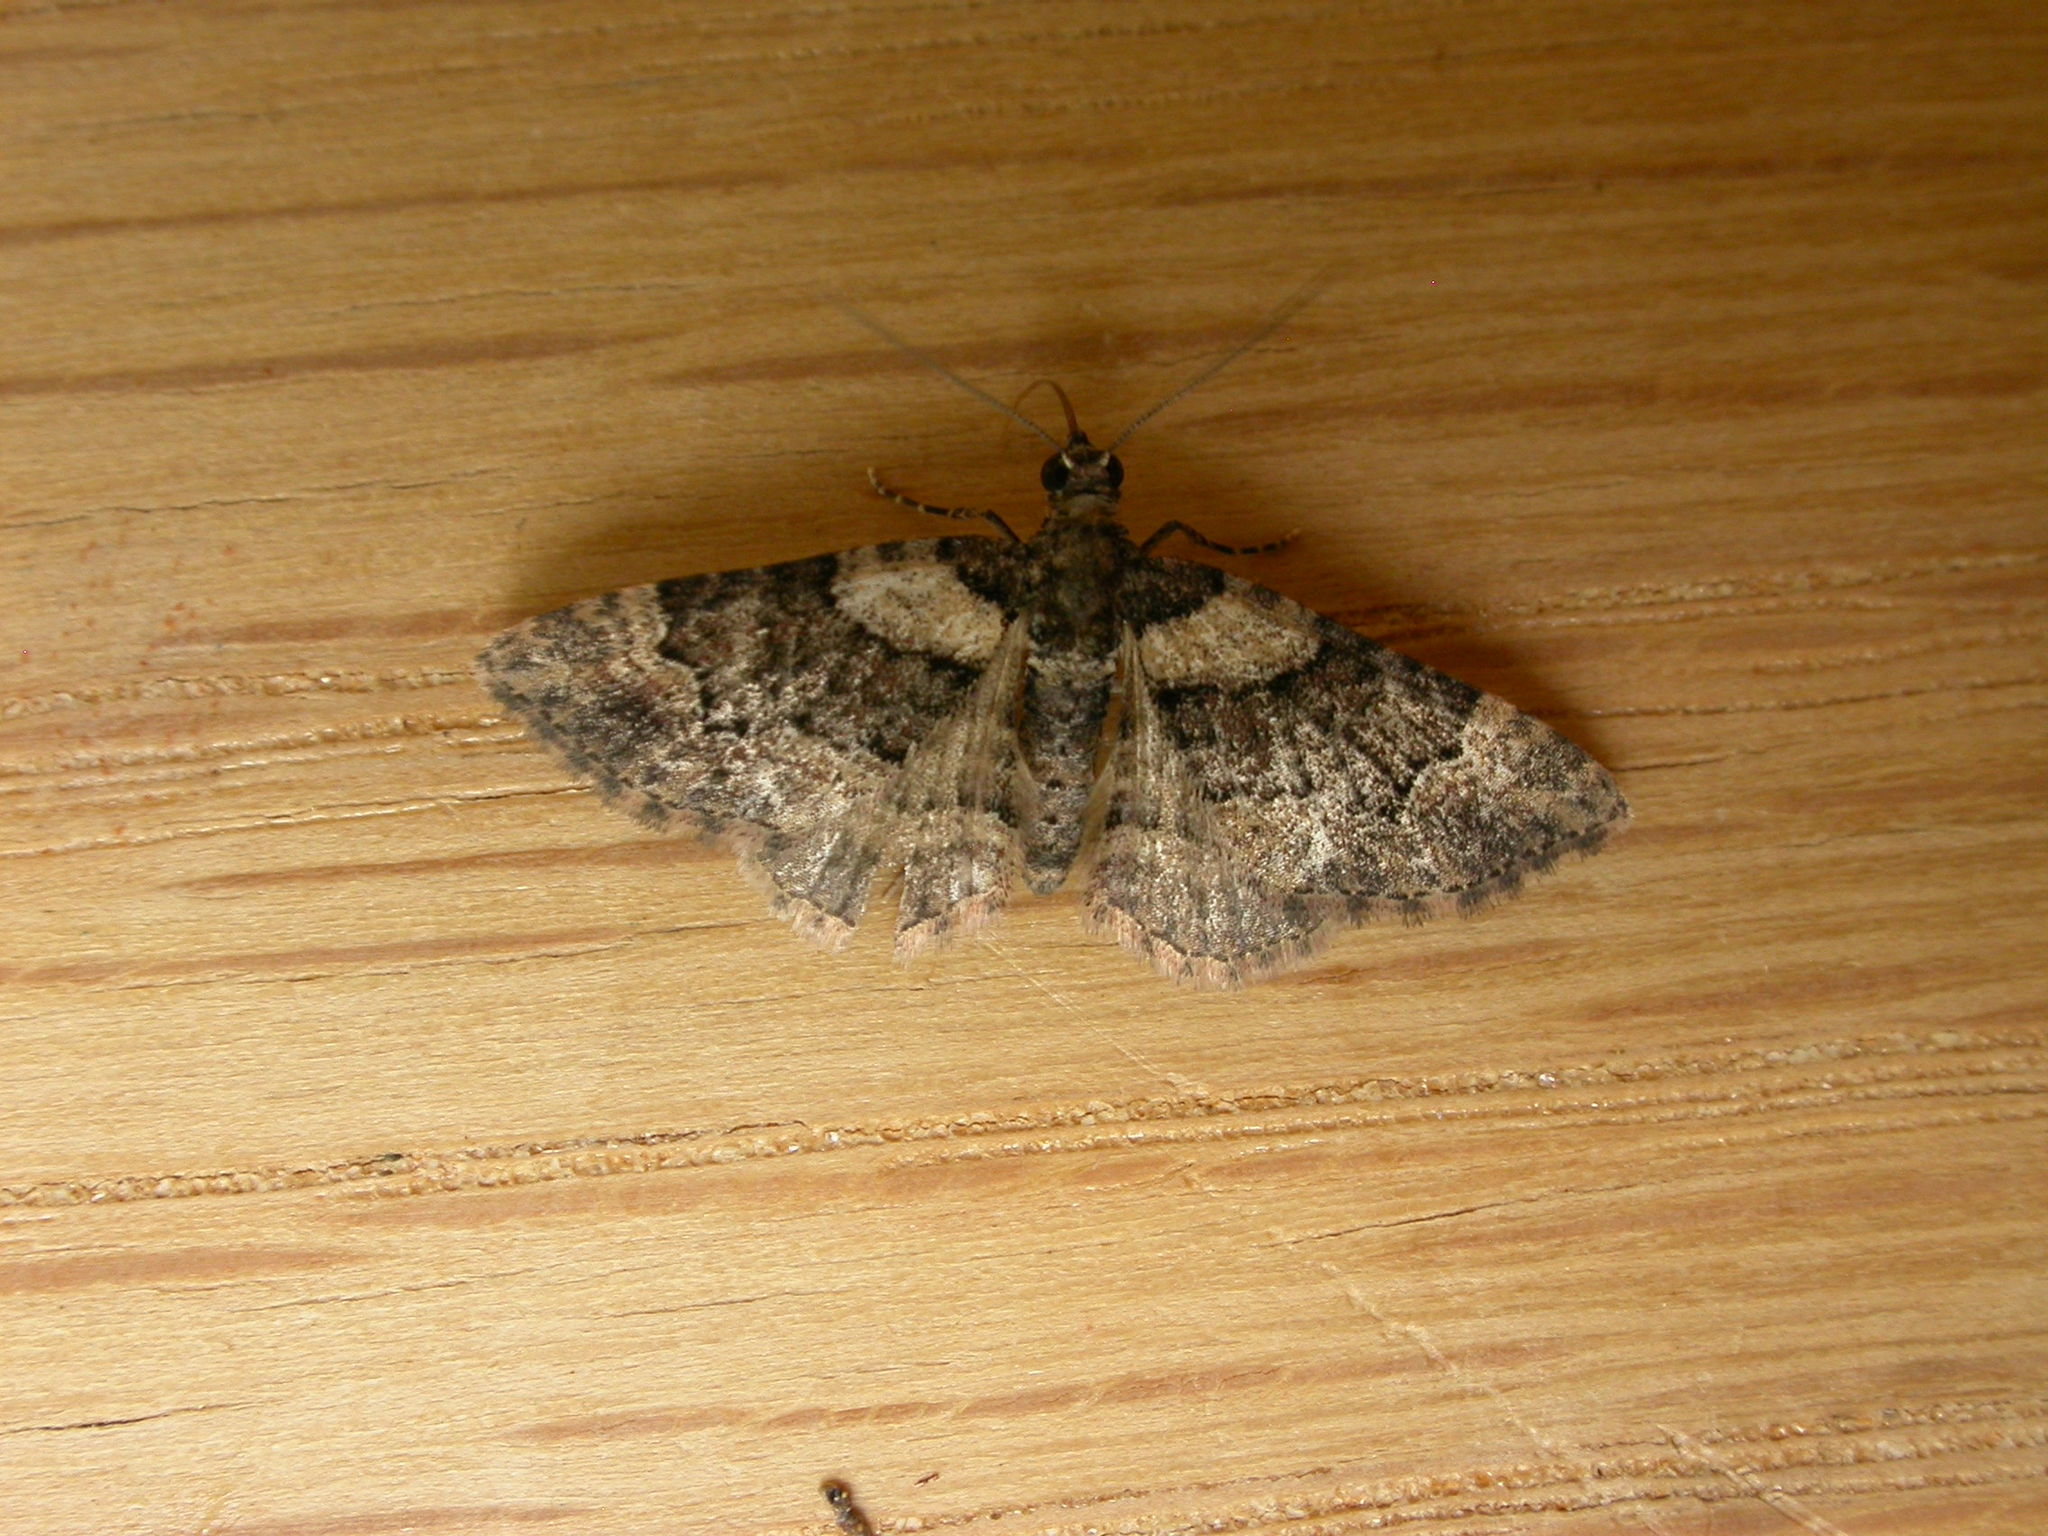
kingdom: Animalia
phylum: Arthropoda
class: Insecta
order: Lepidoptera
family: Geometridae
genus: Epyaxa
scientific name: Epyaxa sodaliata
